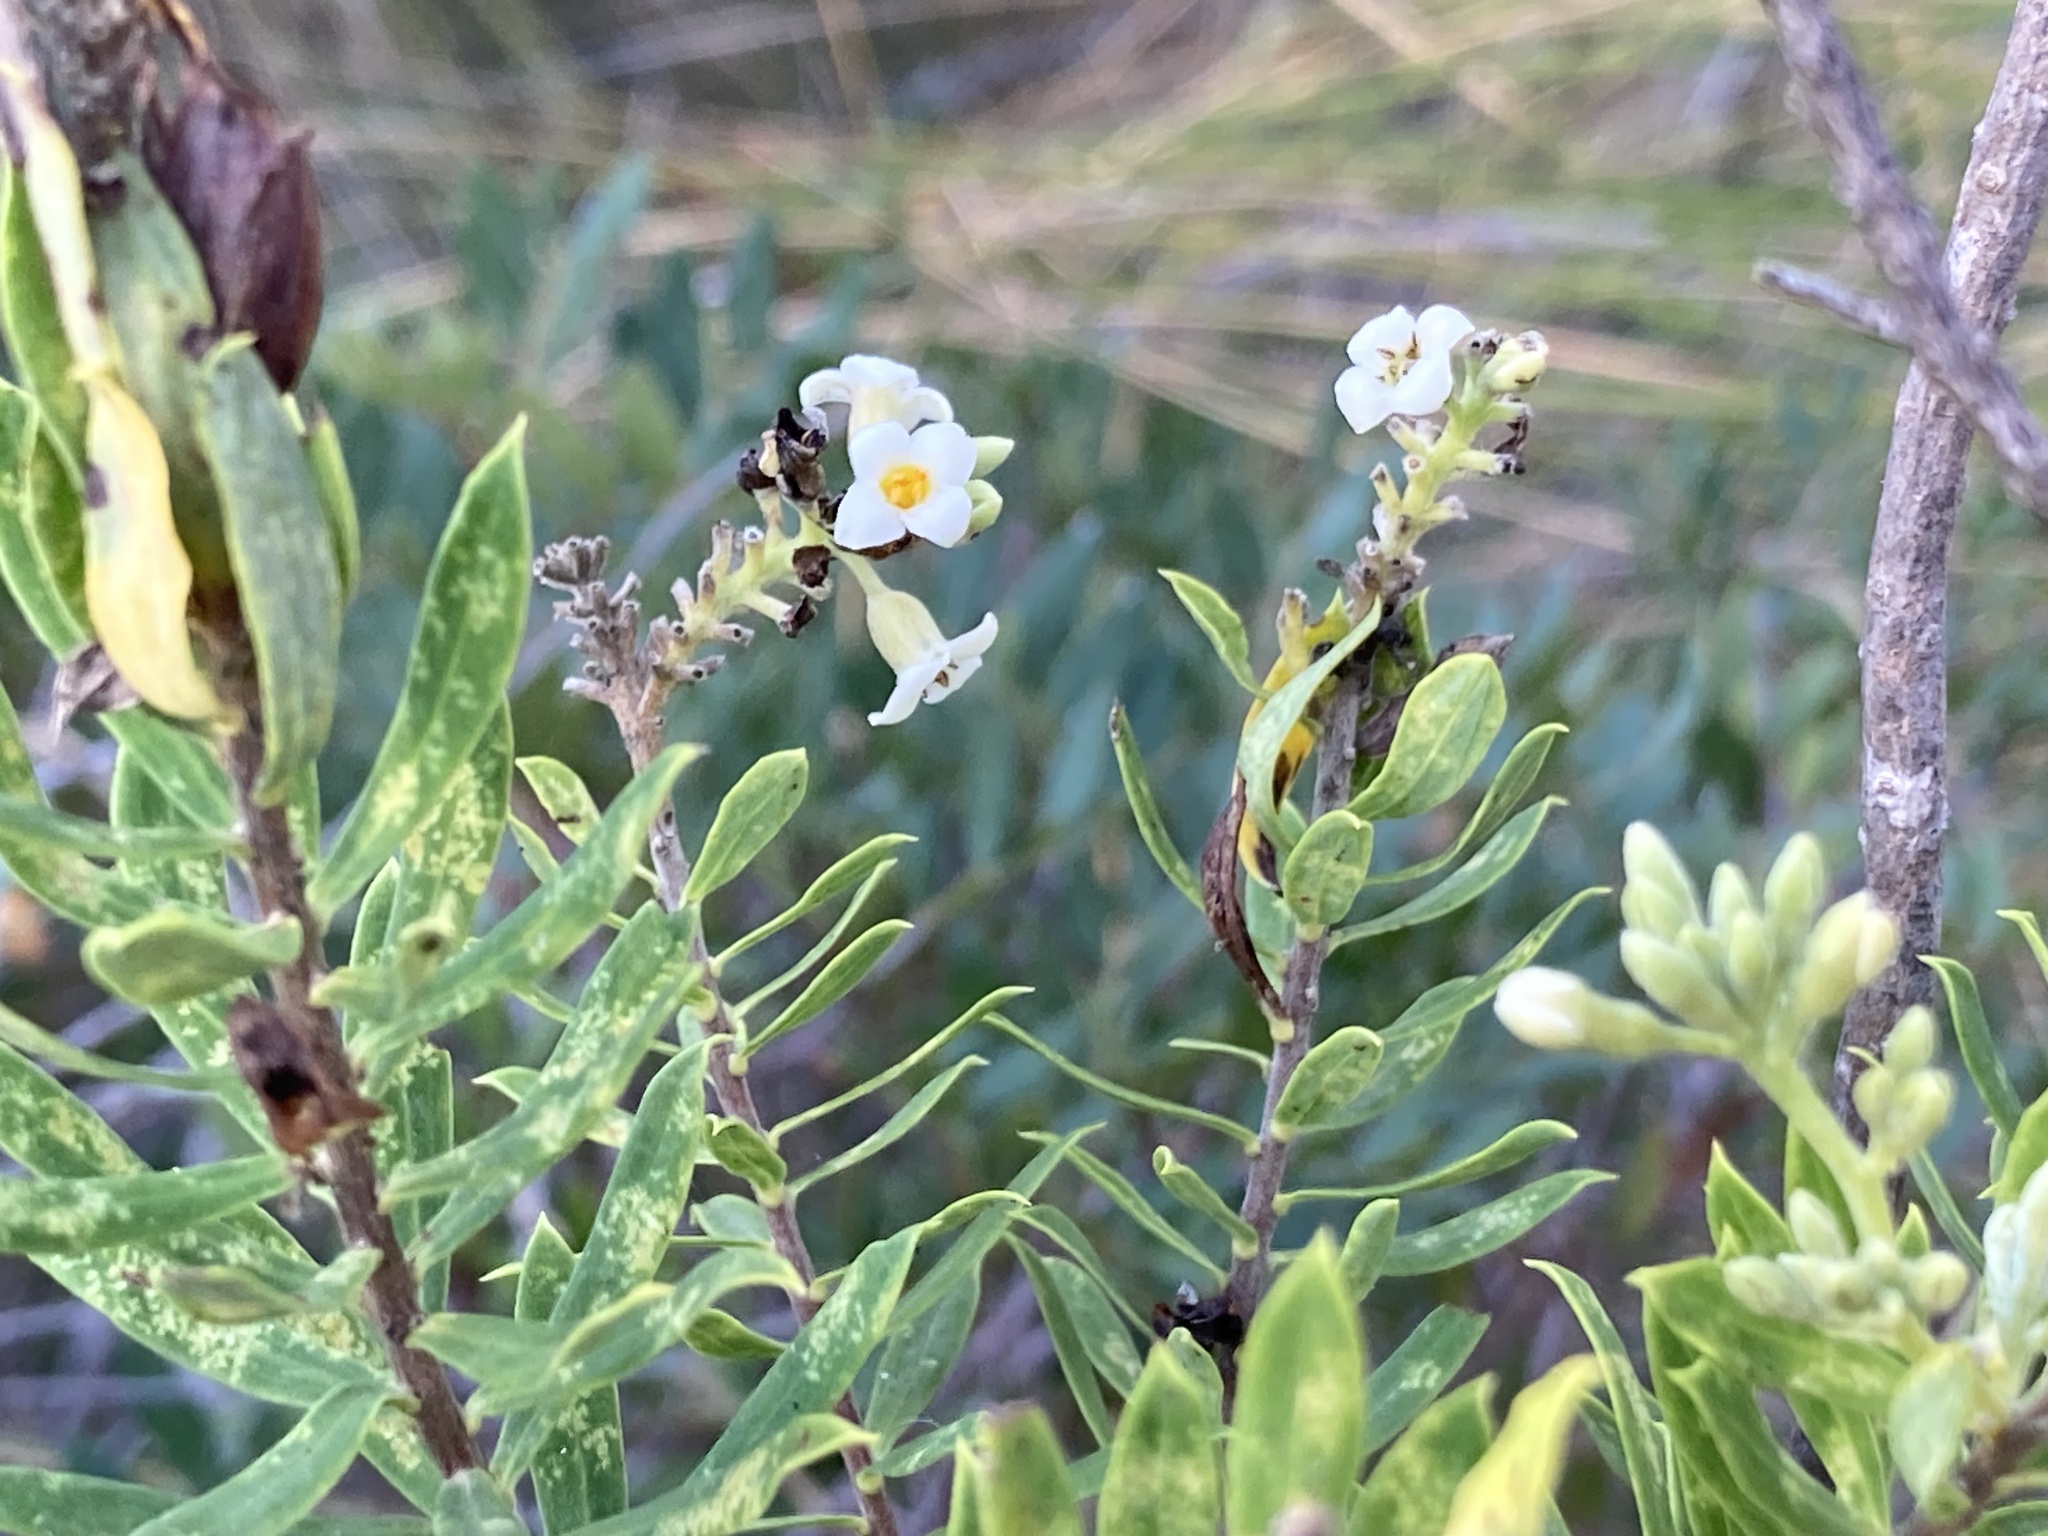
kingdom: Plantae
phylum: Tracheophyta
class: Magnoliopsida
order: Malvales
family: Thymelaeaceae
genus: Daphne
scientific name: Daphne gnidium
